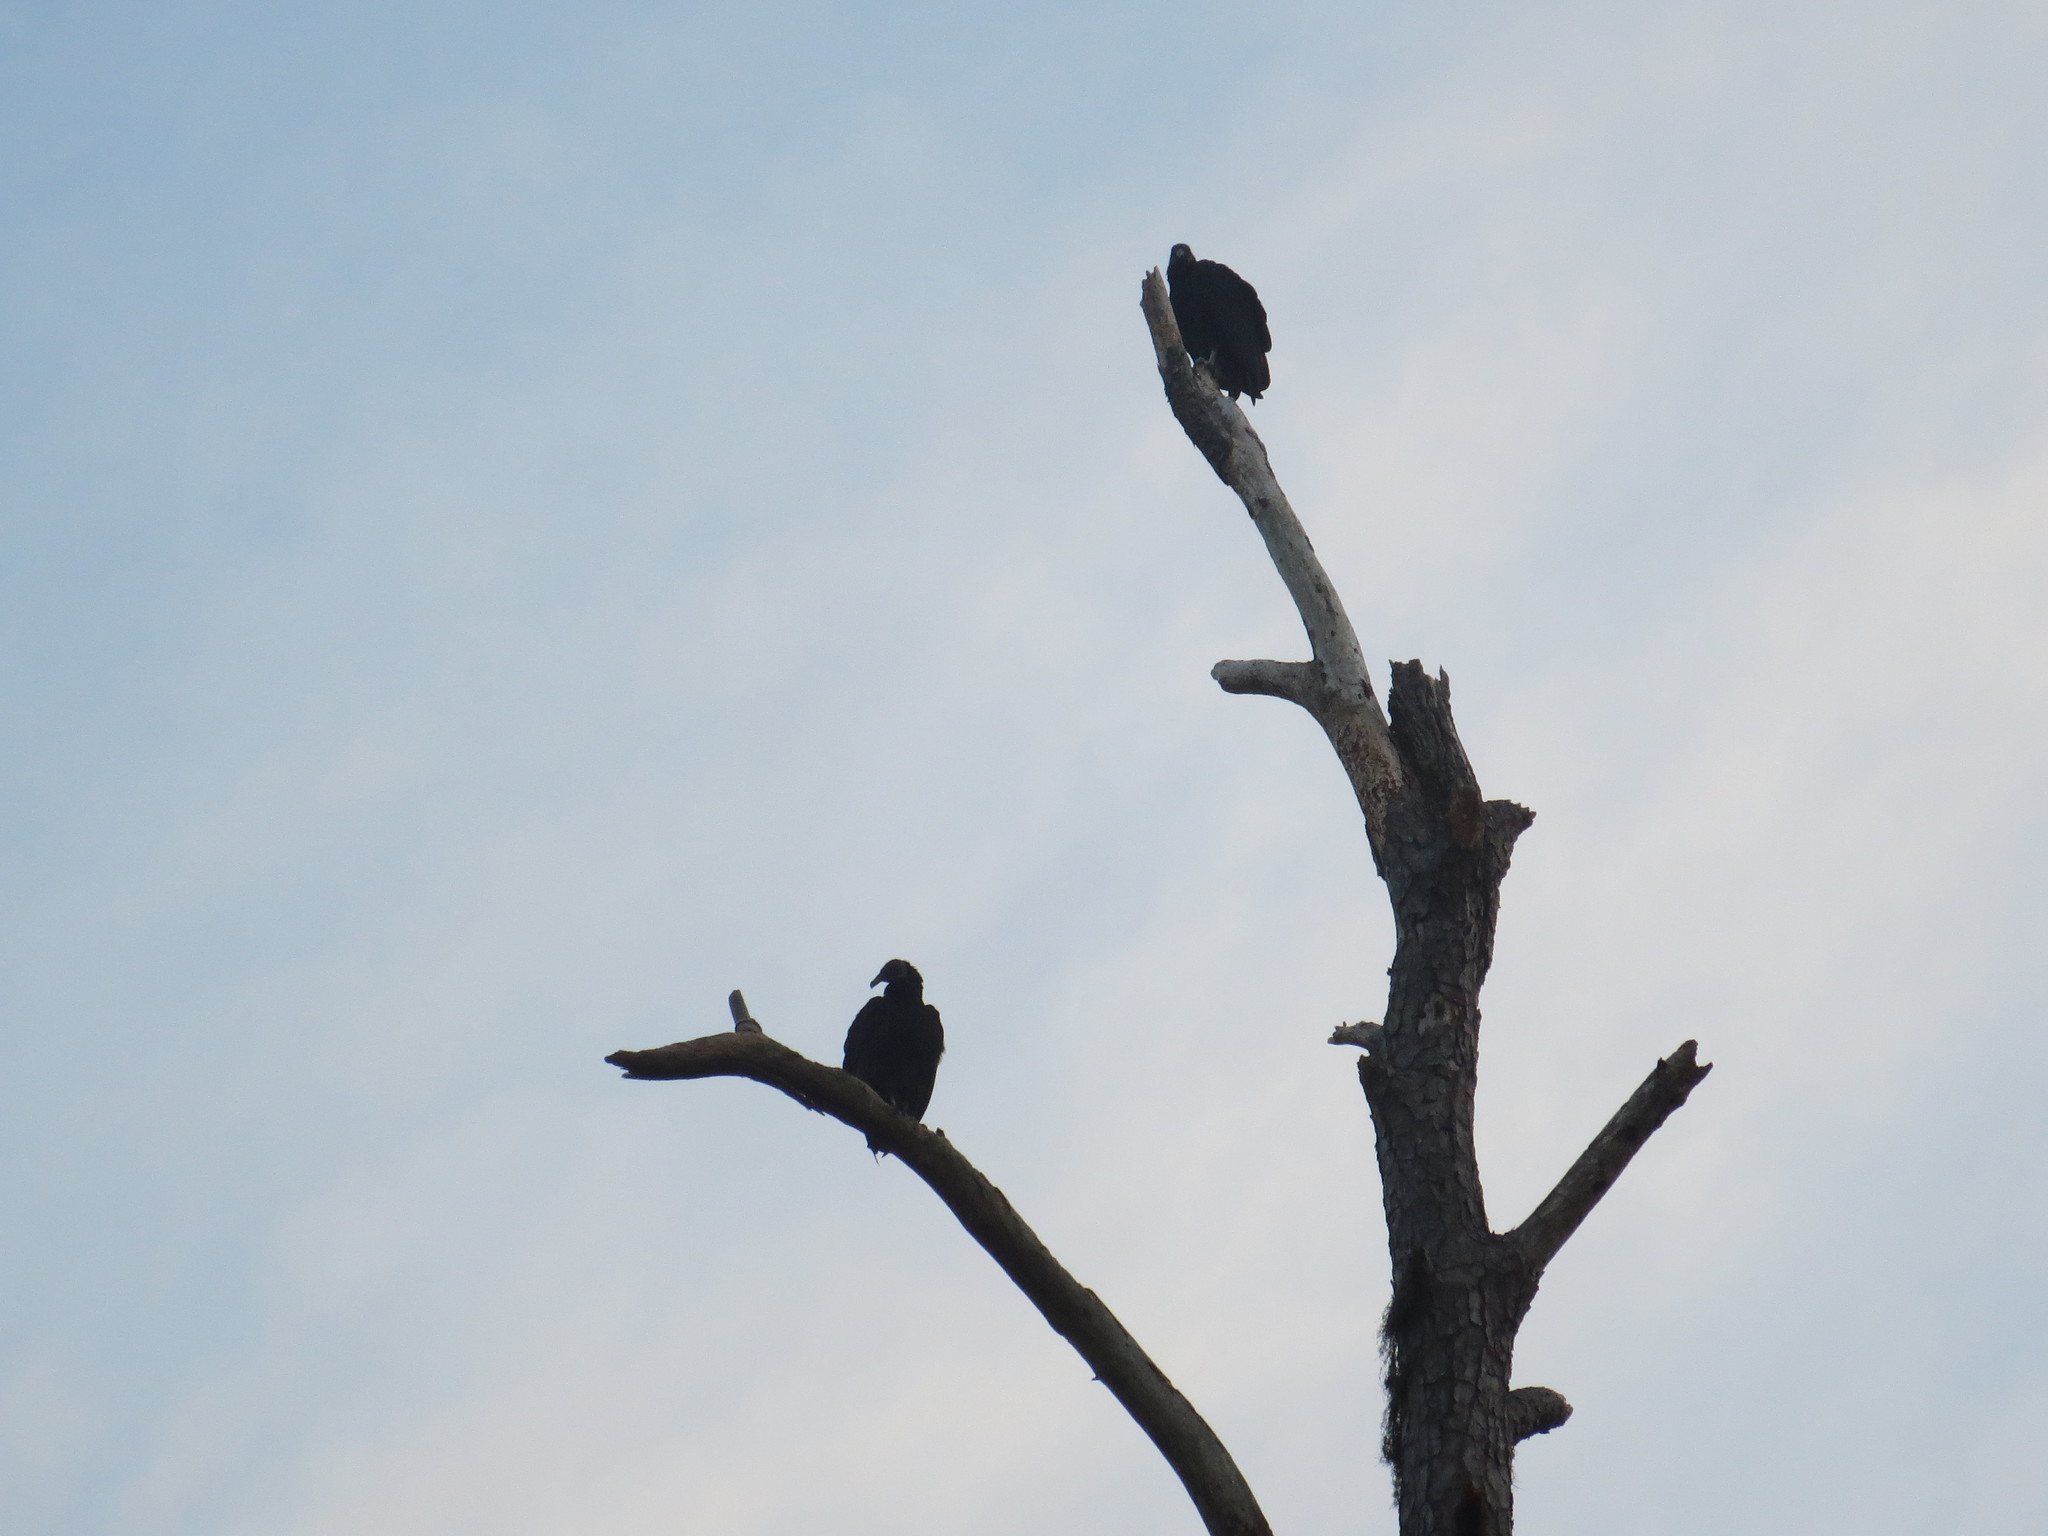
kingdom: Animalia
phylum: Chordata
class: Aves
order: Accipitriformes
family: Cathartidae
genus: Coragyps
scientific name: Coragyps atratus
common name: Black vulture
